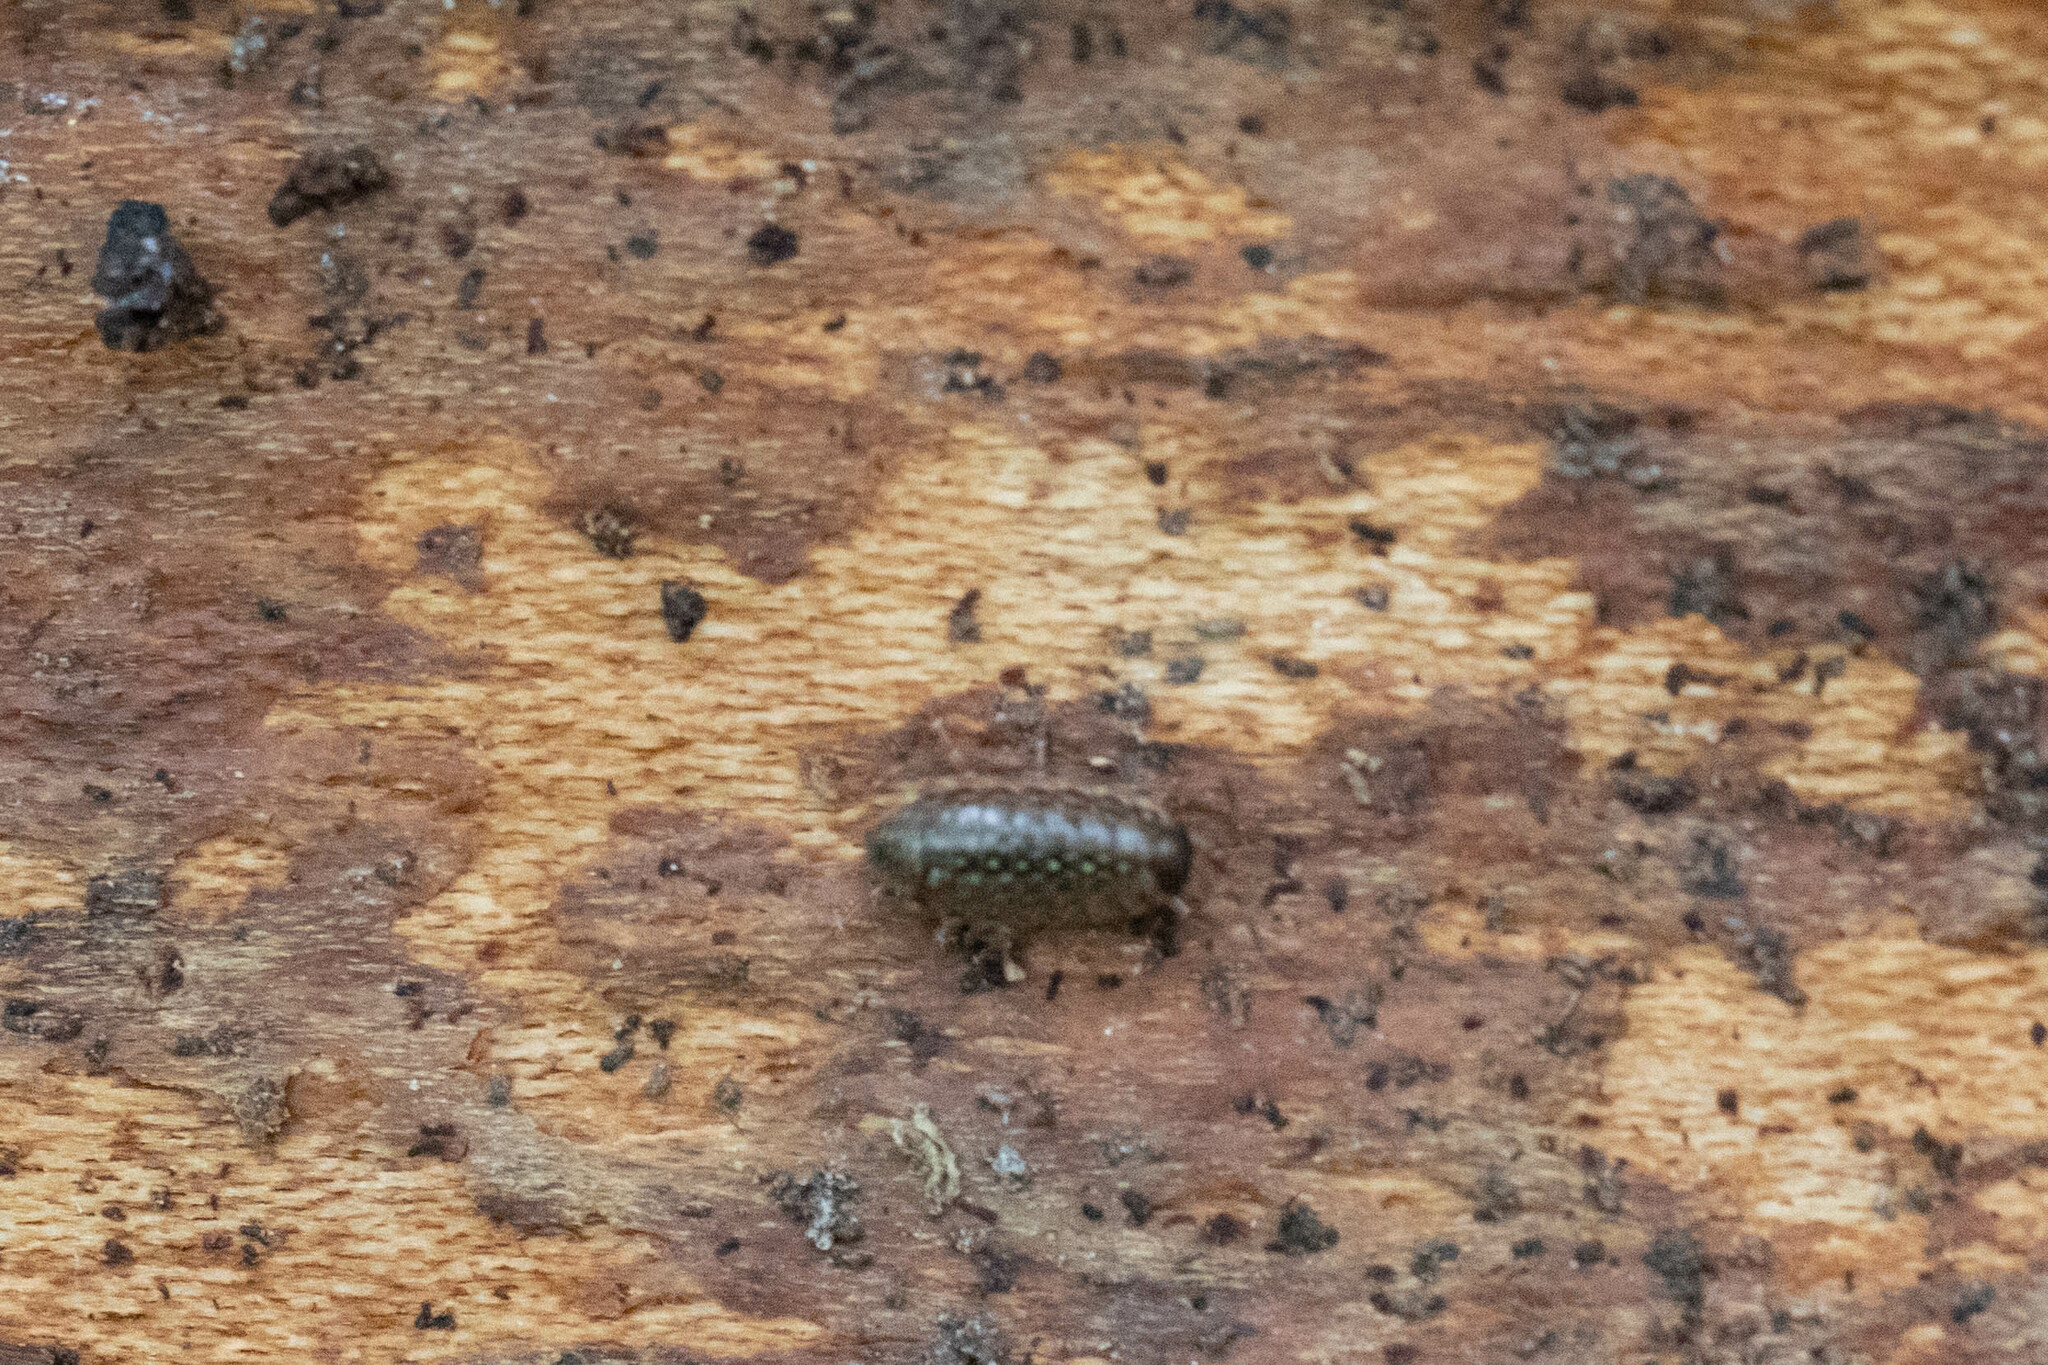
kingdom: Animalia
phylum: Arthropoda
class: Malacostraca
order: Isopoda
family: Philosciidae
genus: Philoscia
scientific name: Philoscia muscorum
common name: Common striped woodlouse
